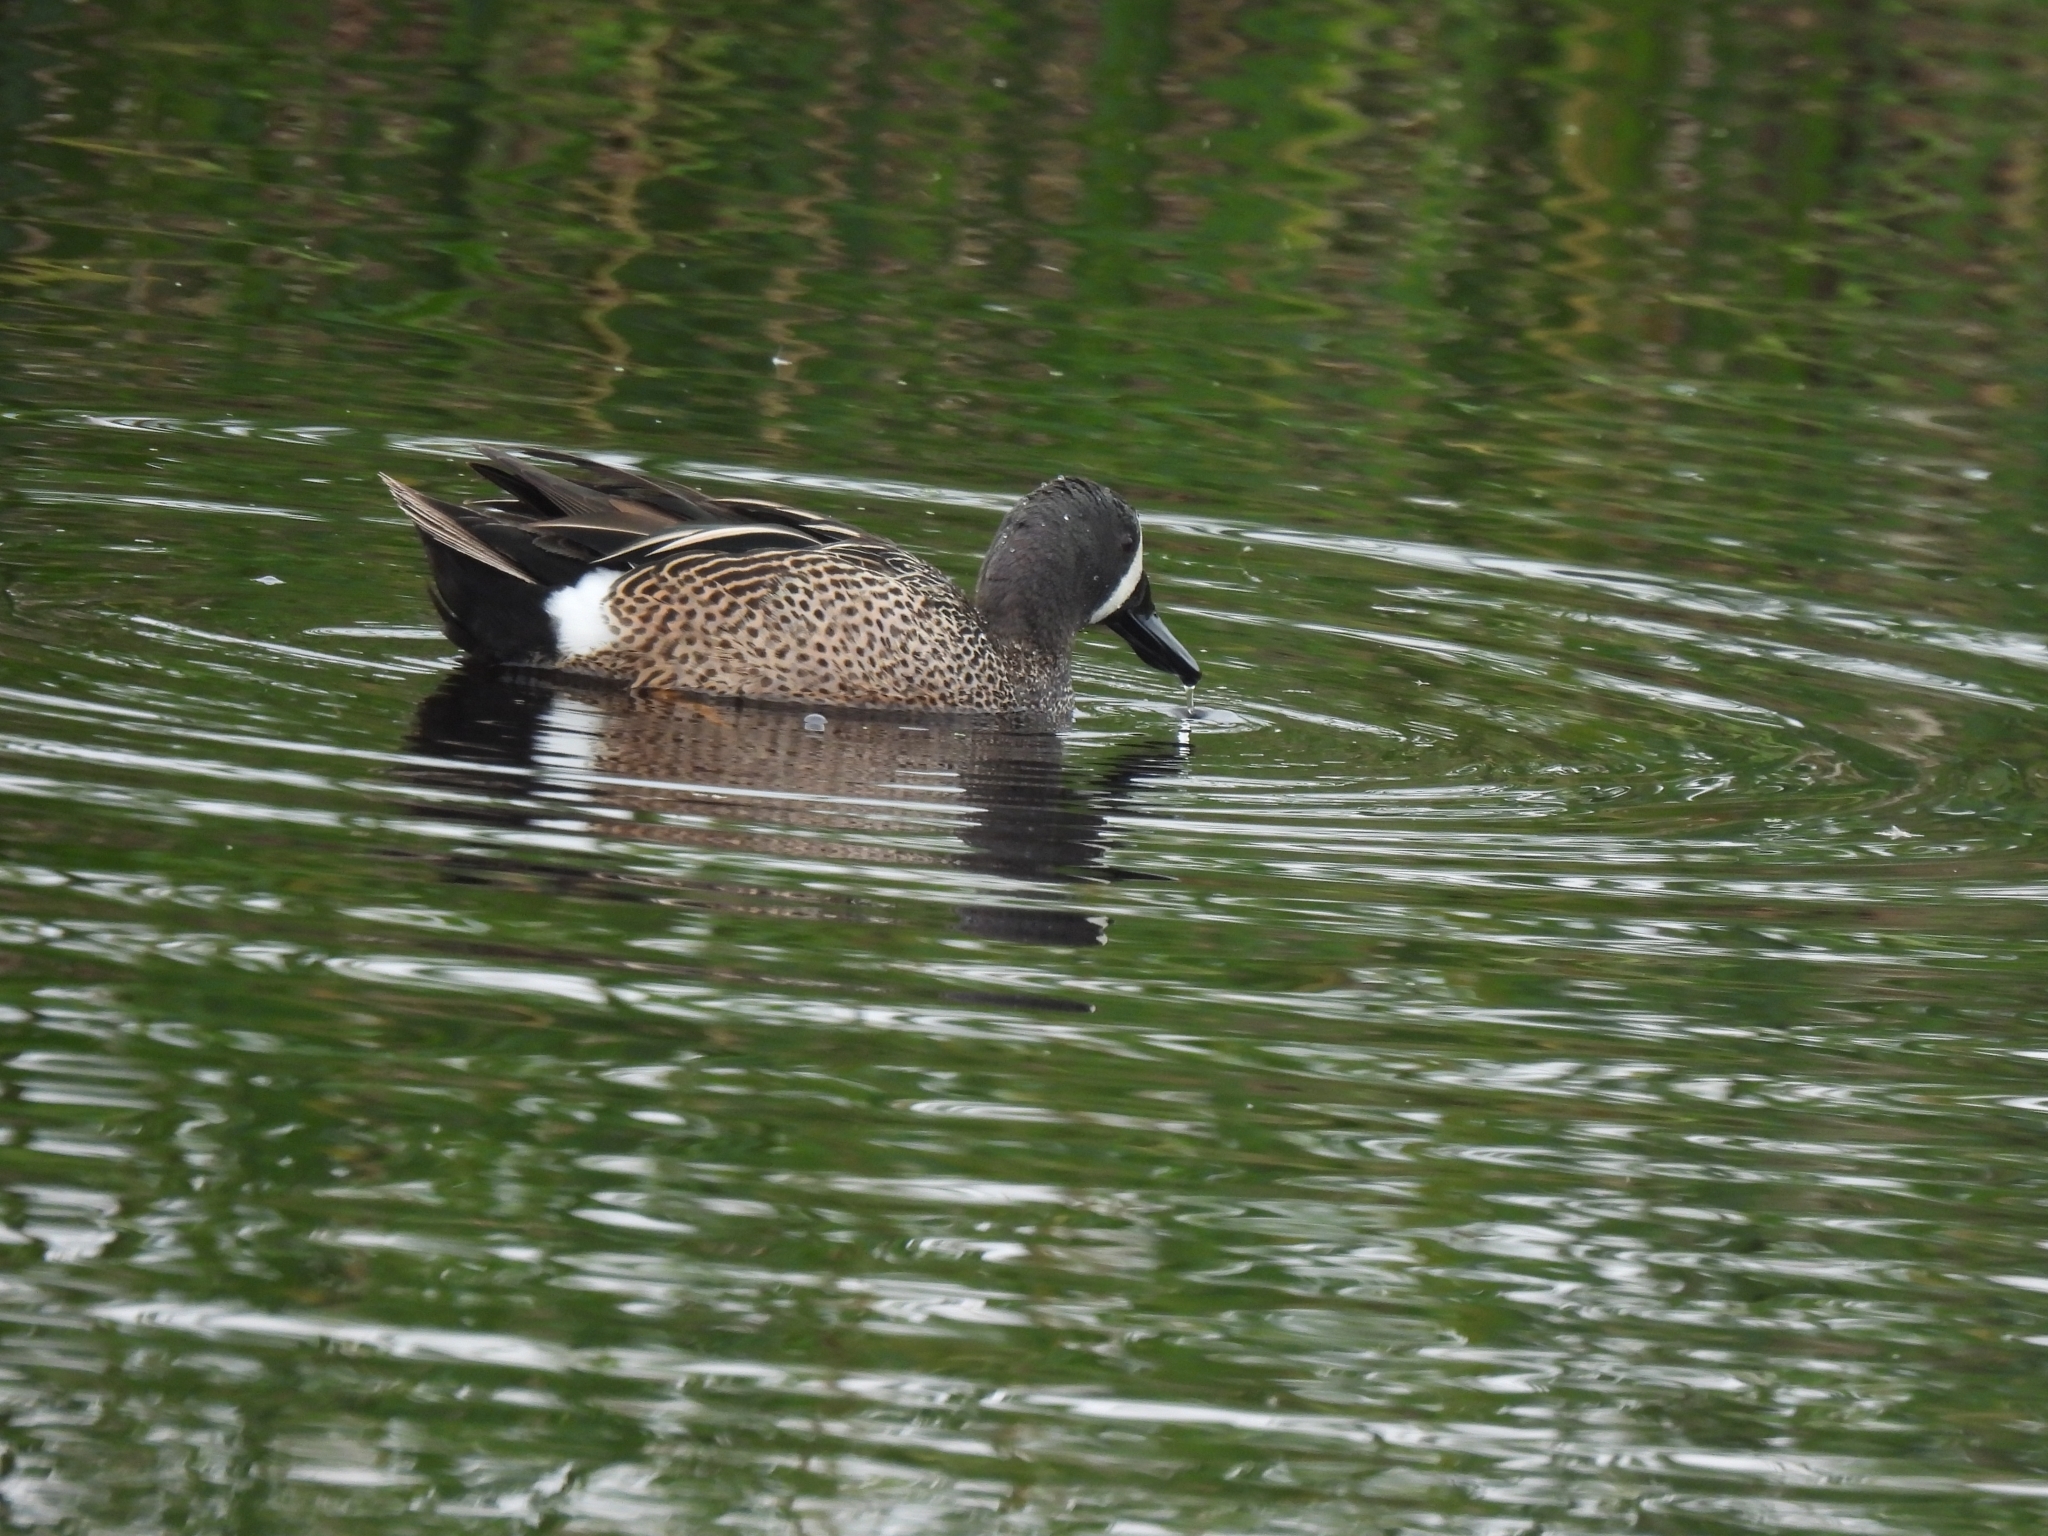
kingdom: Animalia
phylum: Chordata
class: Aves
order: Anseriformes
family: Anatidae
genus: Spatula
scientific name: Spatula discors
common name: Blue-winged teal
